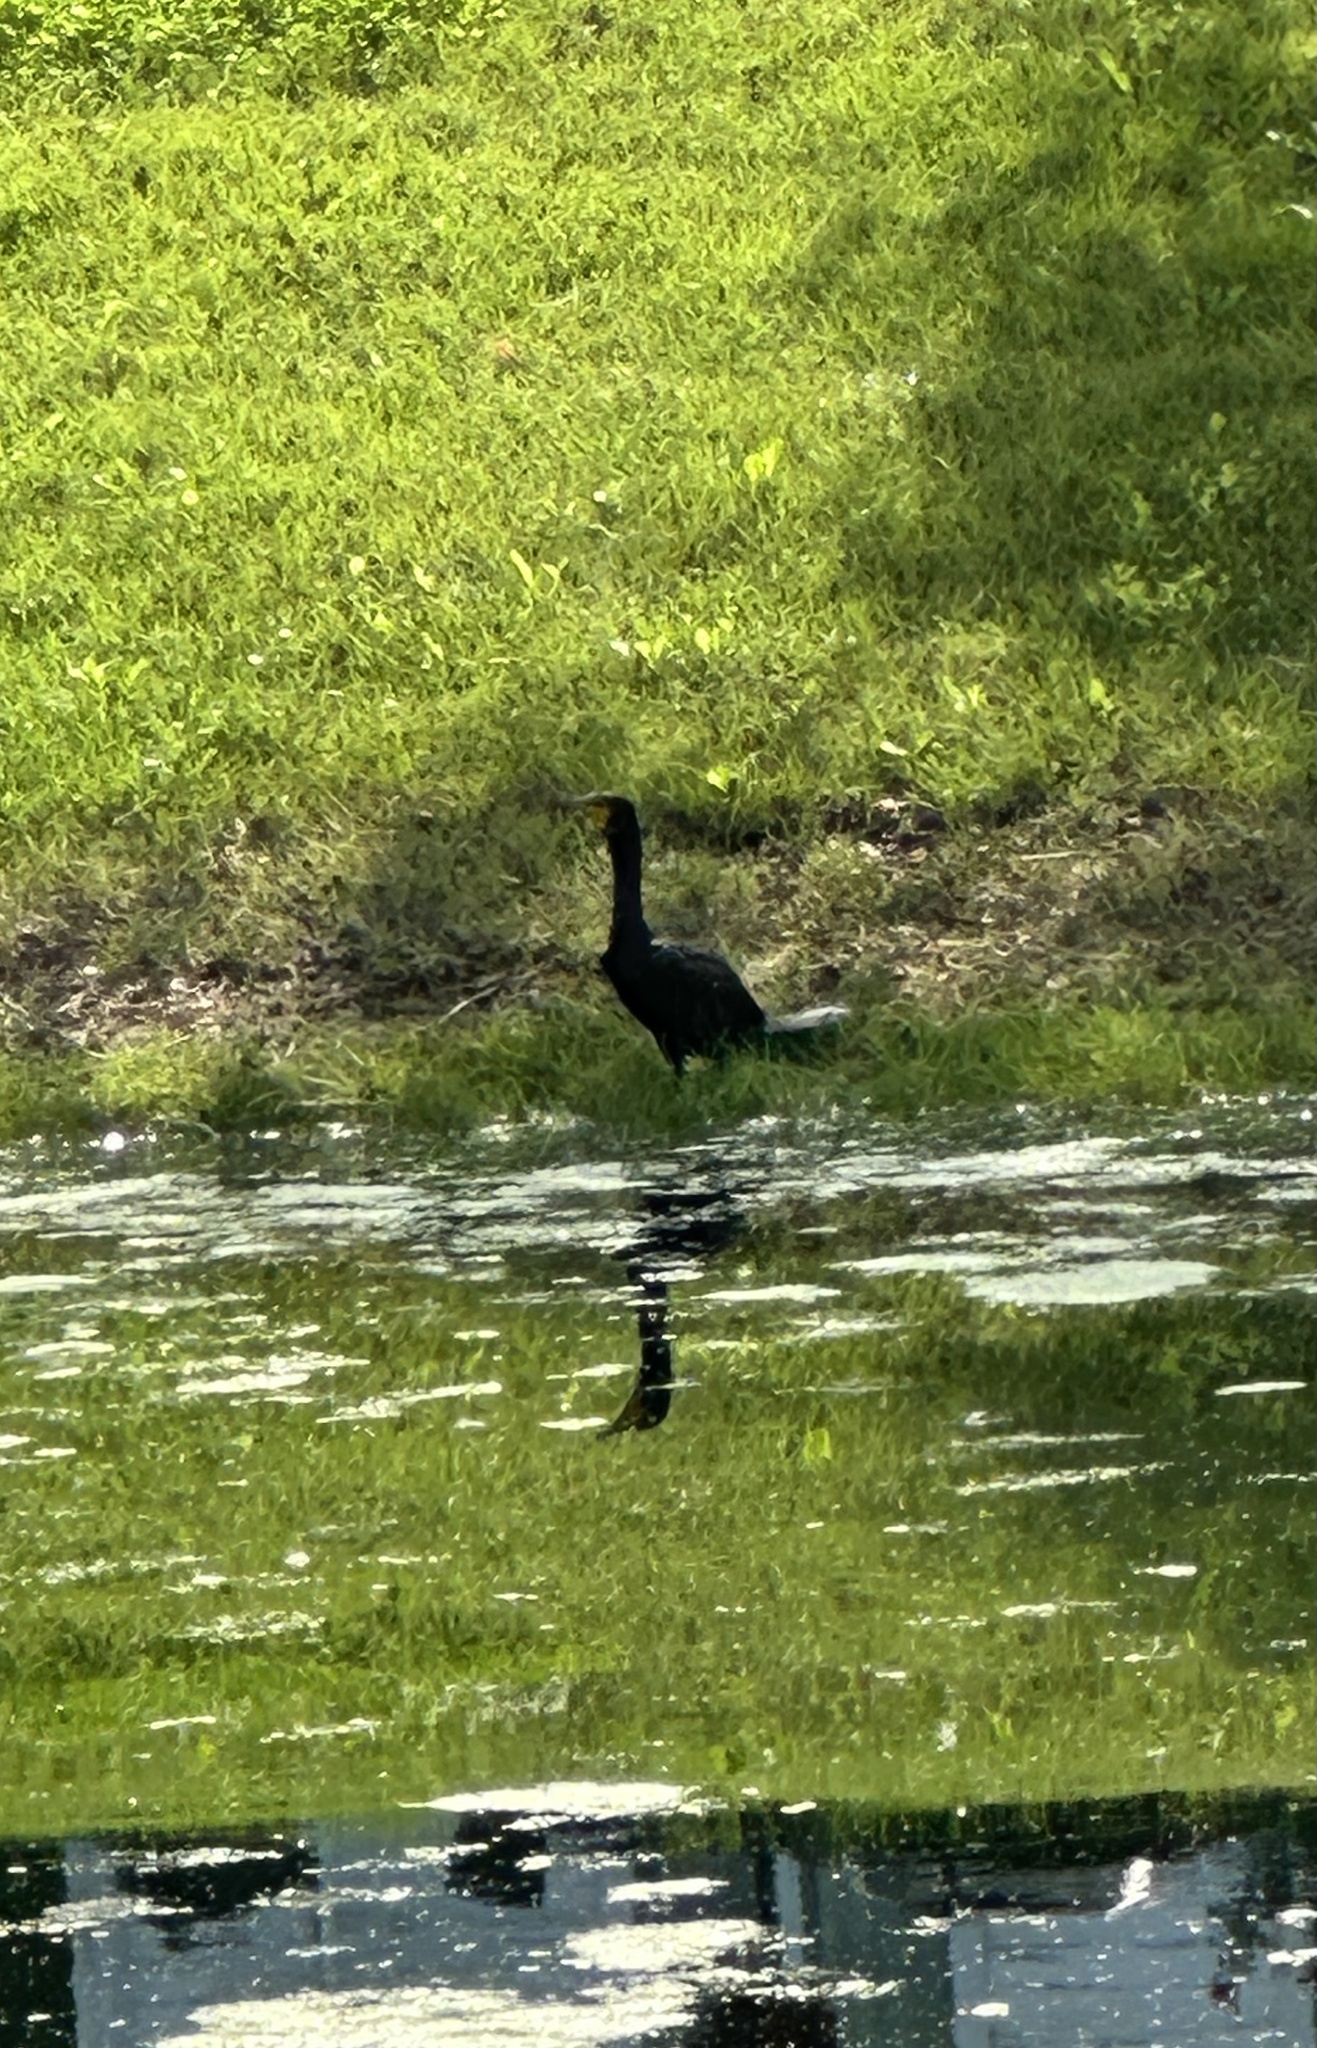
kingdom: Animalia
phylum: Chordata
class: Aves
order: Suliformes
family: Phalacrocoracidae
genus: Phalacrocorax
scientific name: Phalacrocorax auritus
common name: Double-crested cormorant
